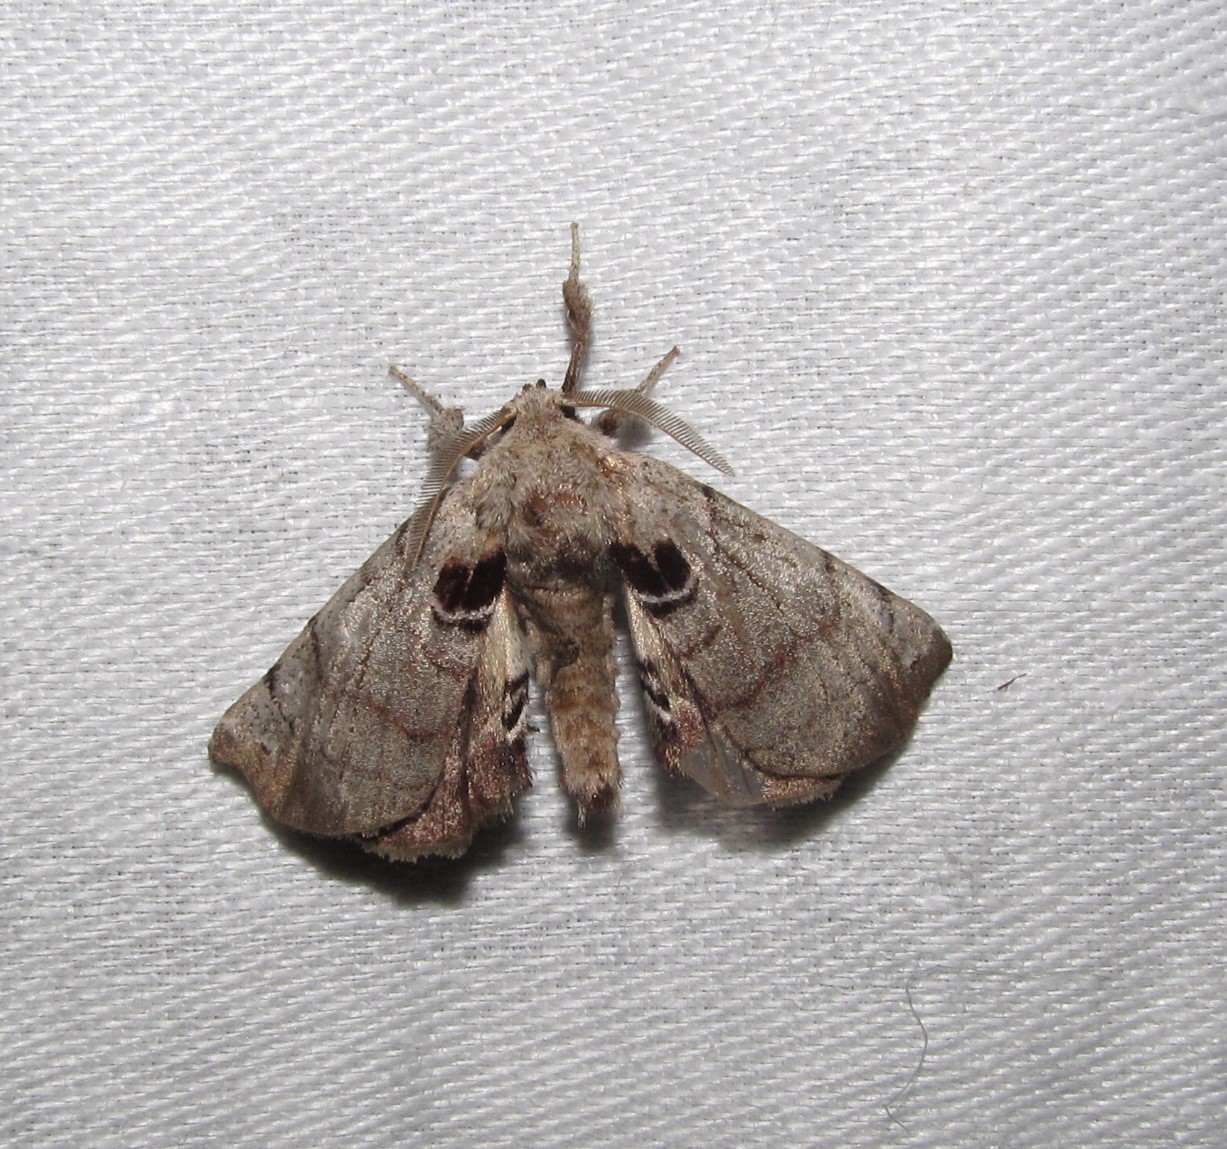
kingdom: Animalia
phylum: Arthropoda
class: Insecta
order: Lepidoptera
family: Apatelodidae
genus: Hygrochroa
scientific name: Hygrochroa Apatelodes torrefacta
